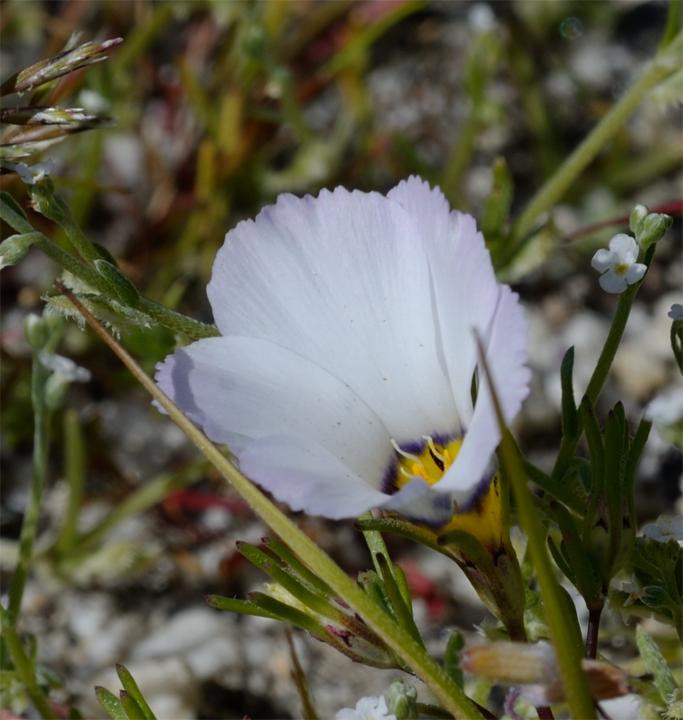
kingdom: Plantae
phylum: Tracheophyta
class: Magnoliopsida
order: Ericales
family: Polemoniaceae
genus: Linanthus
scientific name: Linanthus dianthiflorus
